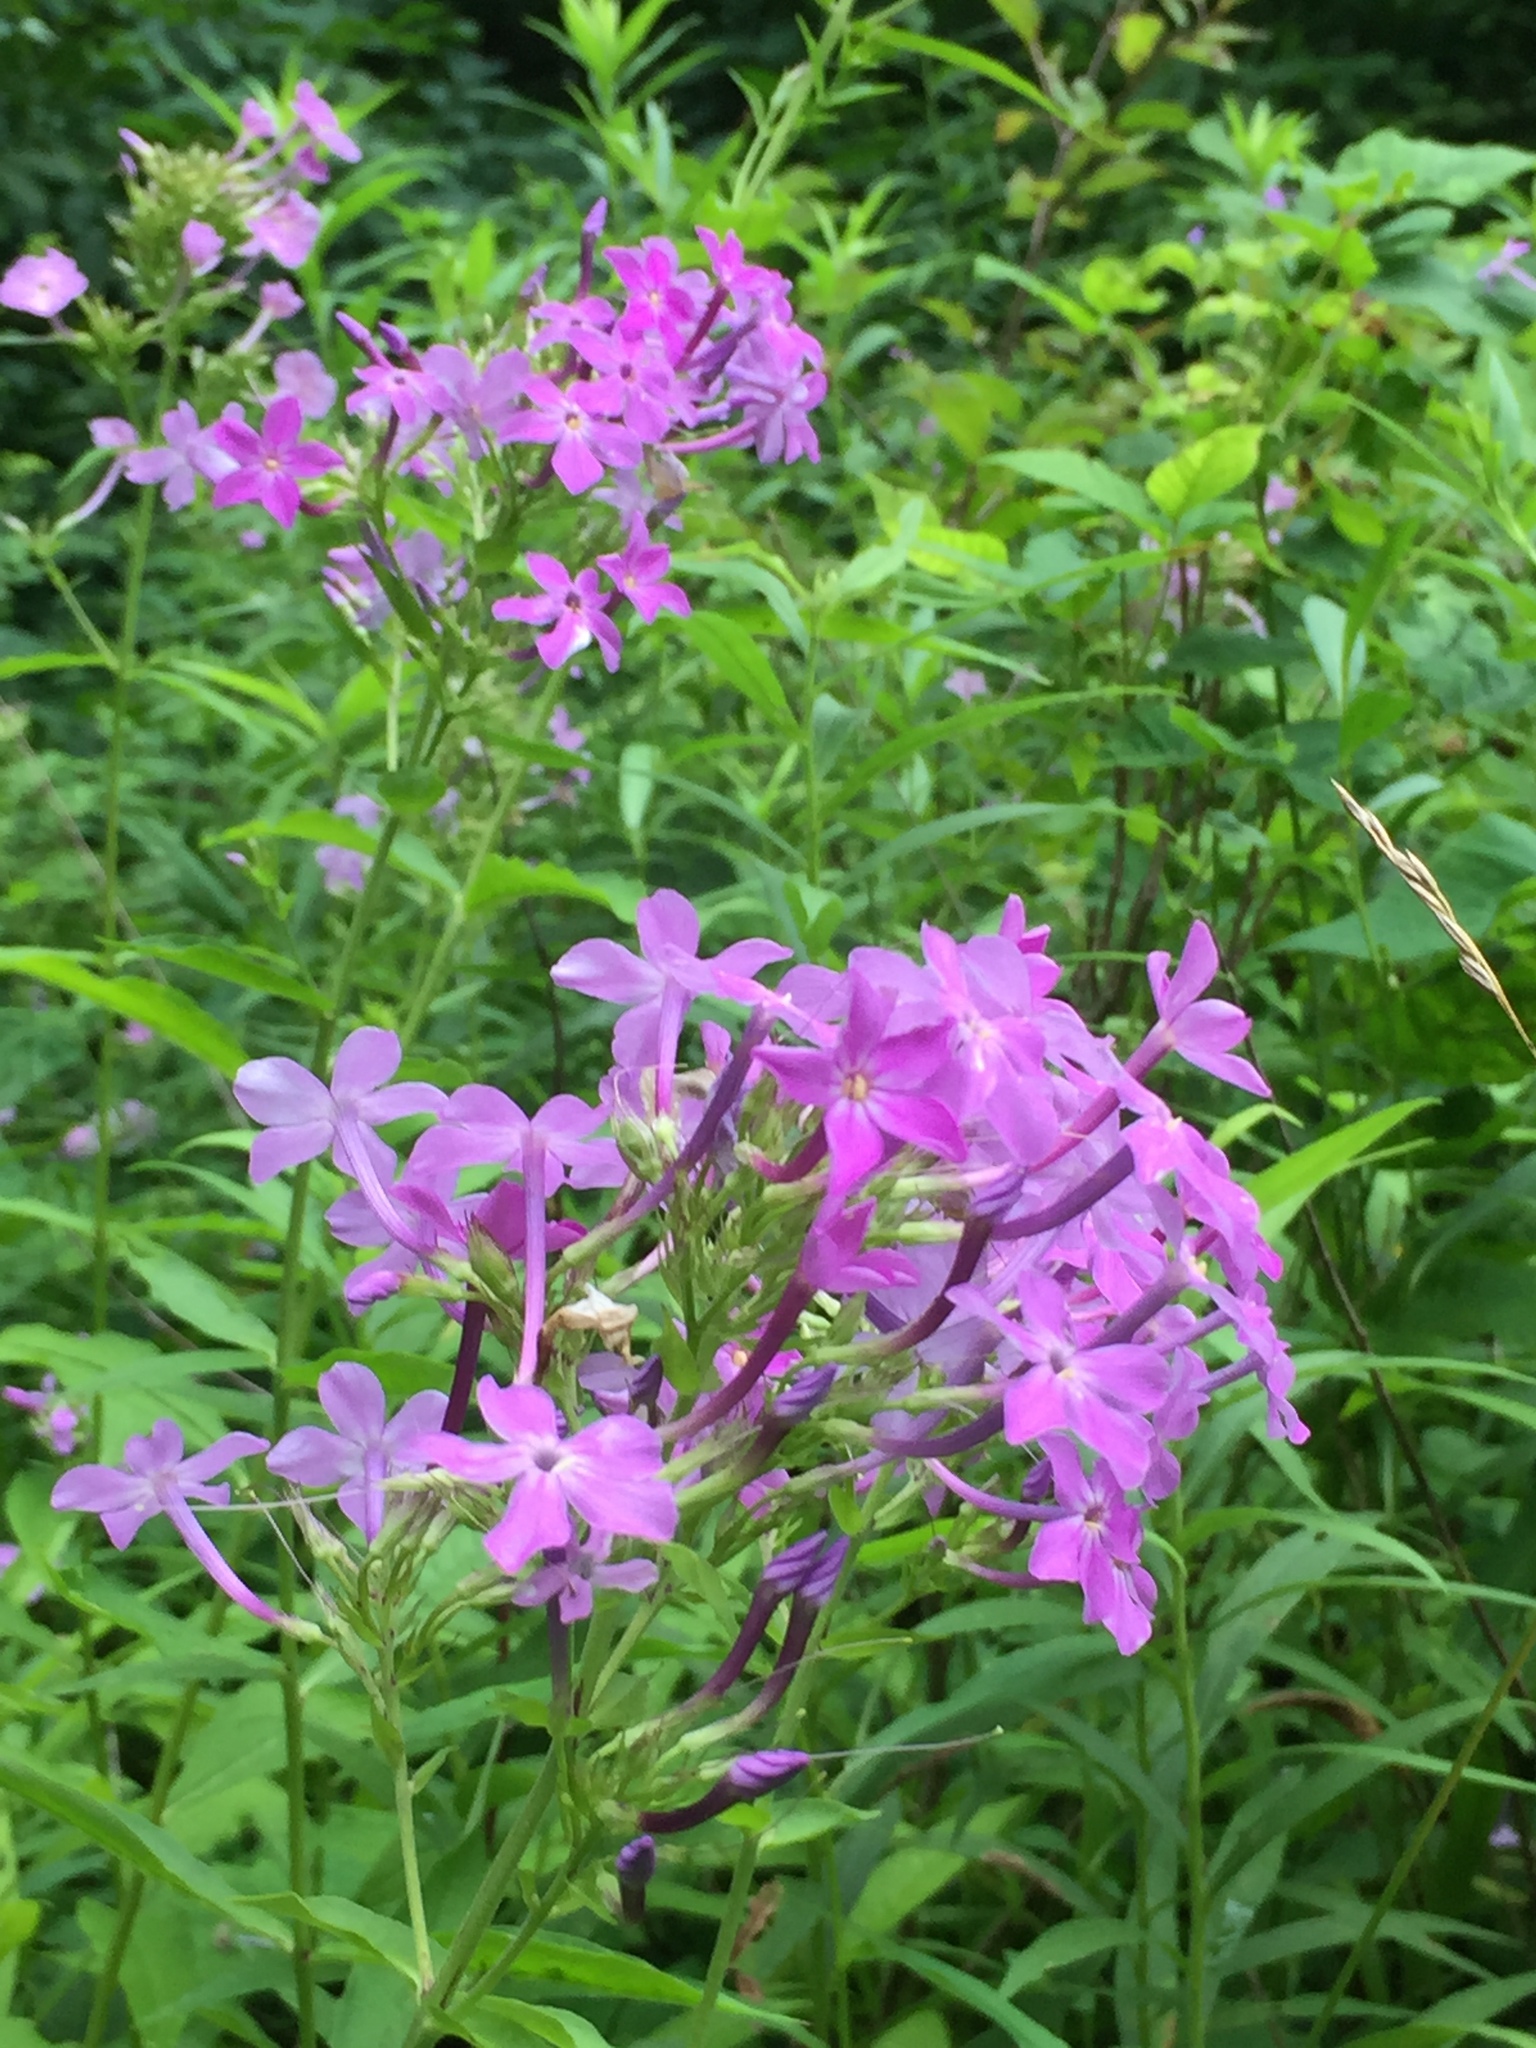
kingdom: Plantae
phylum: Tracheophyta
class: Magnoliopsida
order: Ericales
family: Polemoniaceae
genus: Phlox
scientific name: Phlox paniculata
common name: Fall phlox
